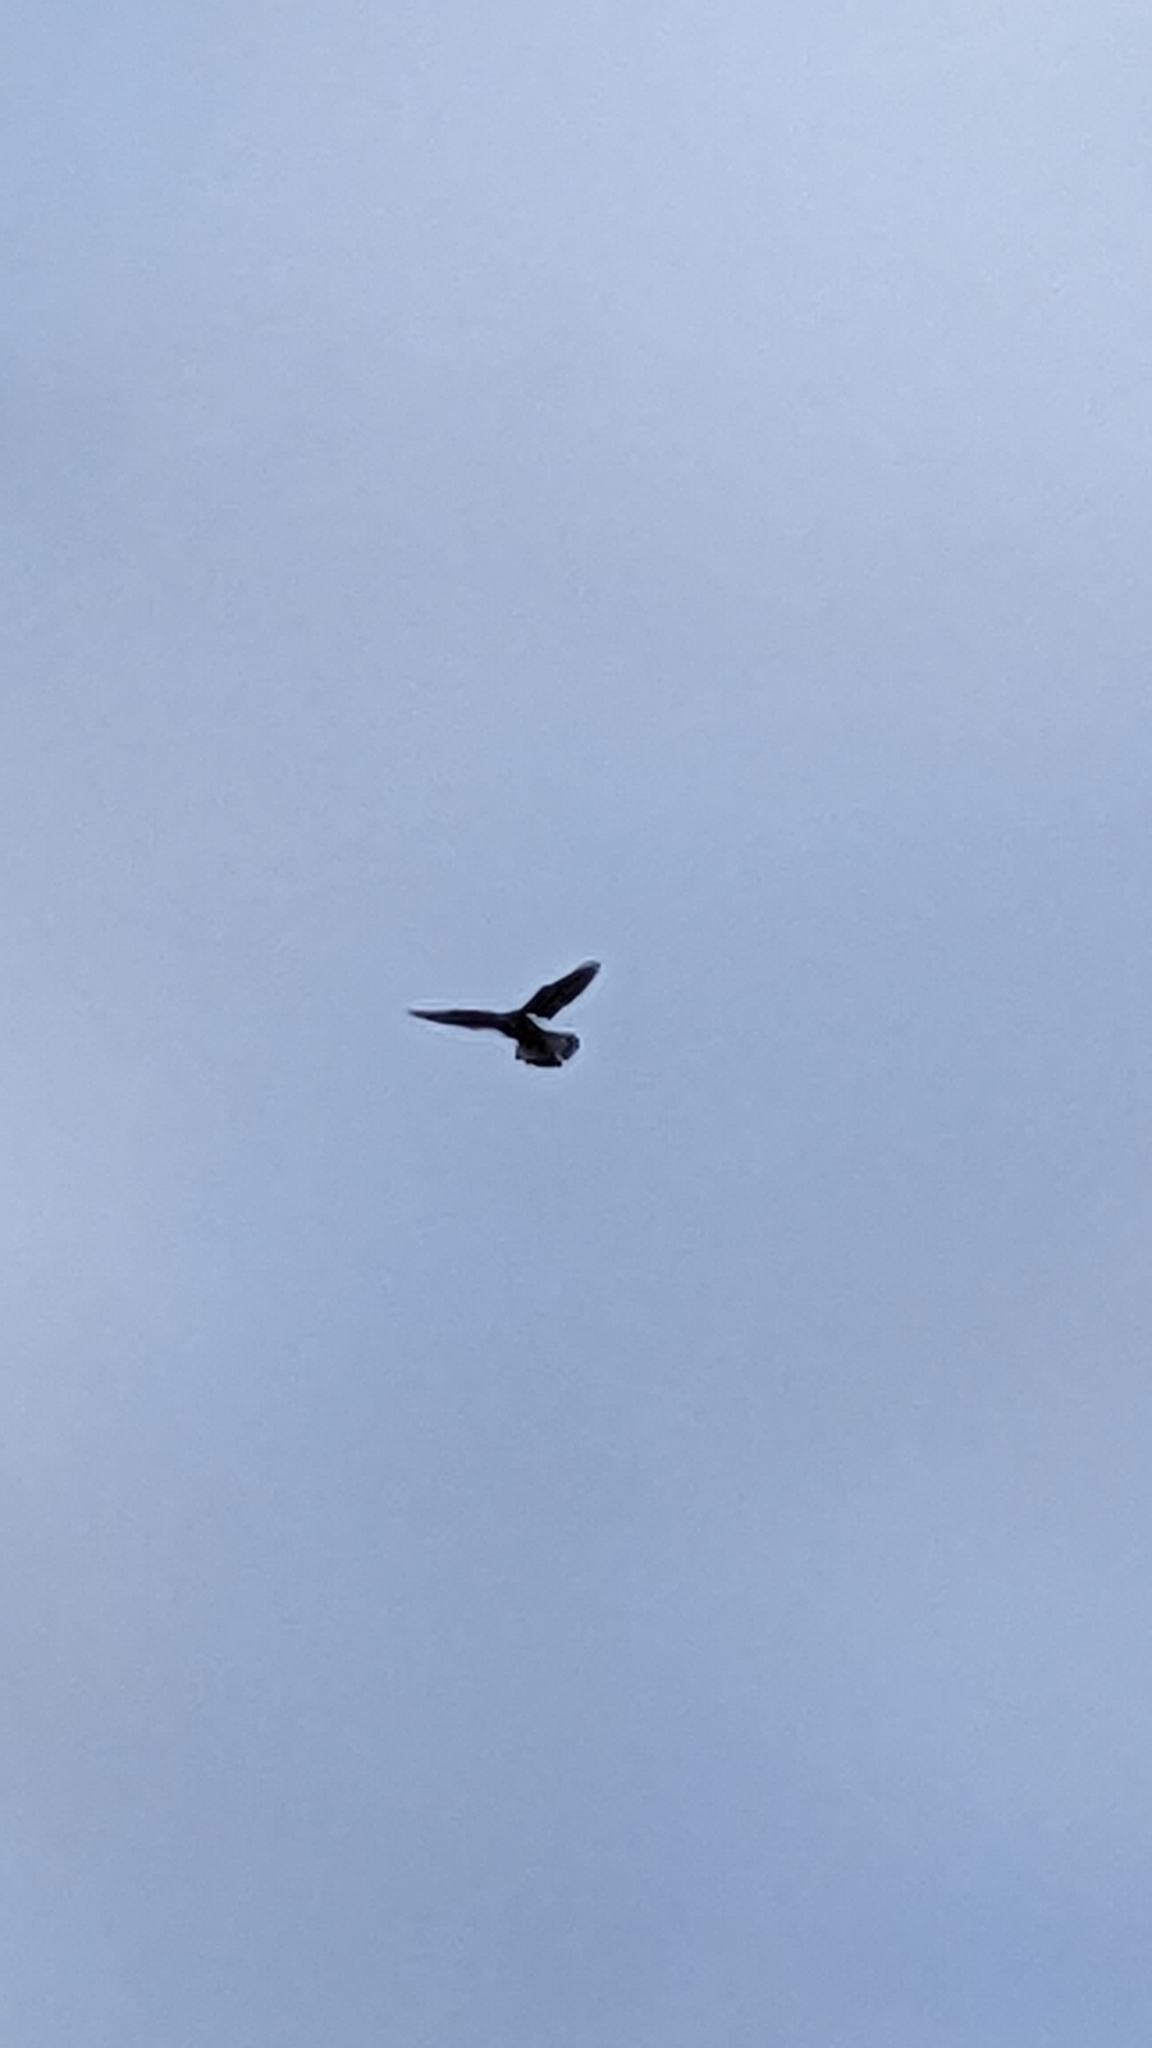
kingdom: Animalia
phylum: Chordata
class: Aves
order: Falconiformes
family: Falconidae
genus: Falco
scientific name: Falco tinnunculus
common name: Common kestrel
